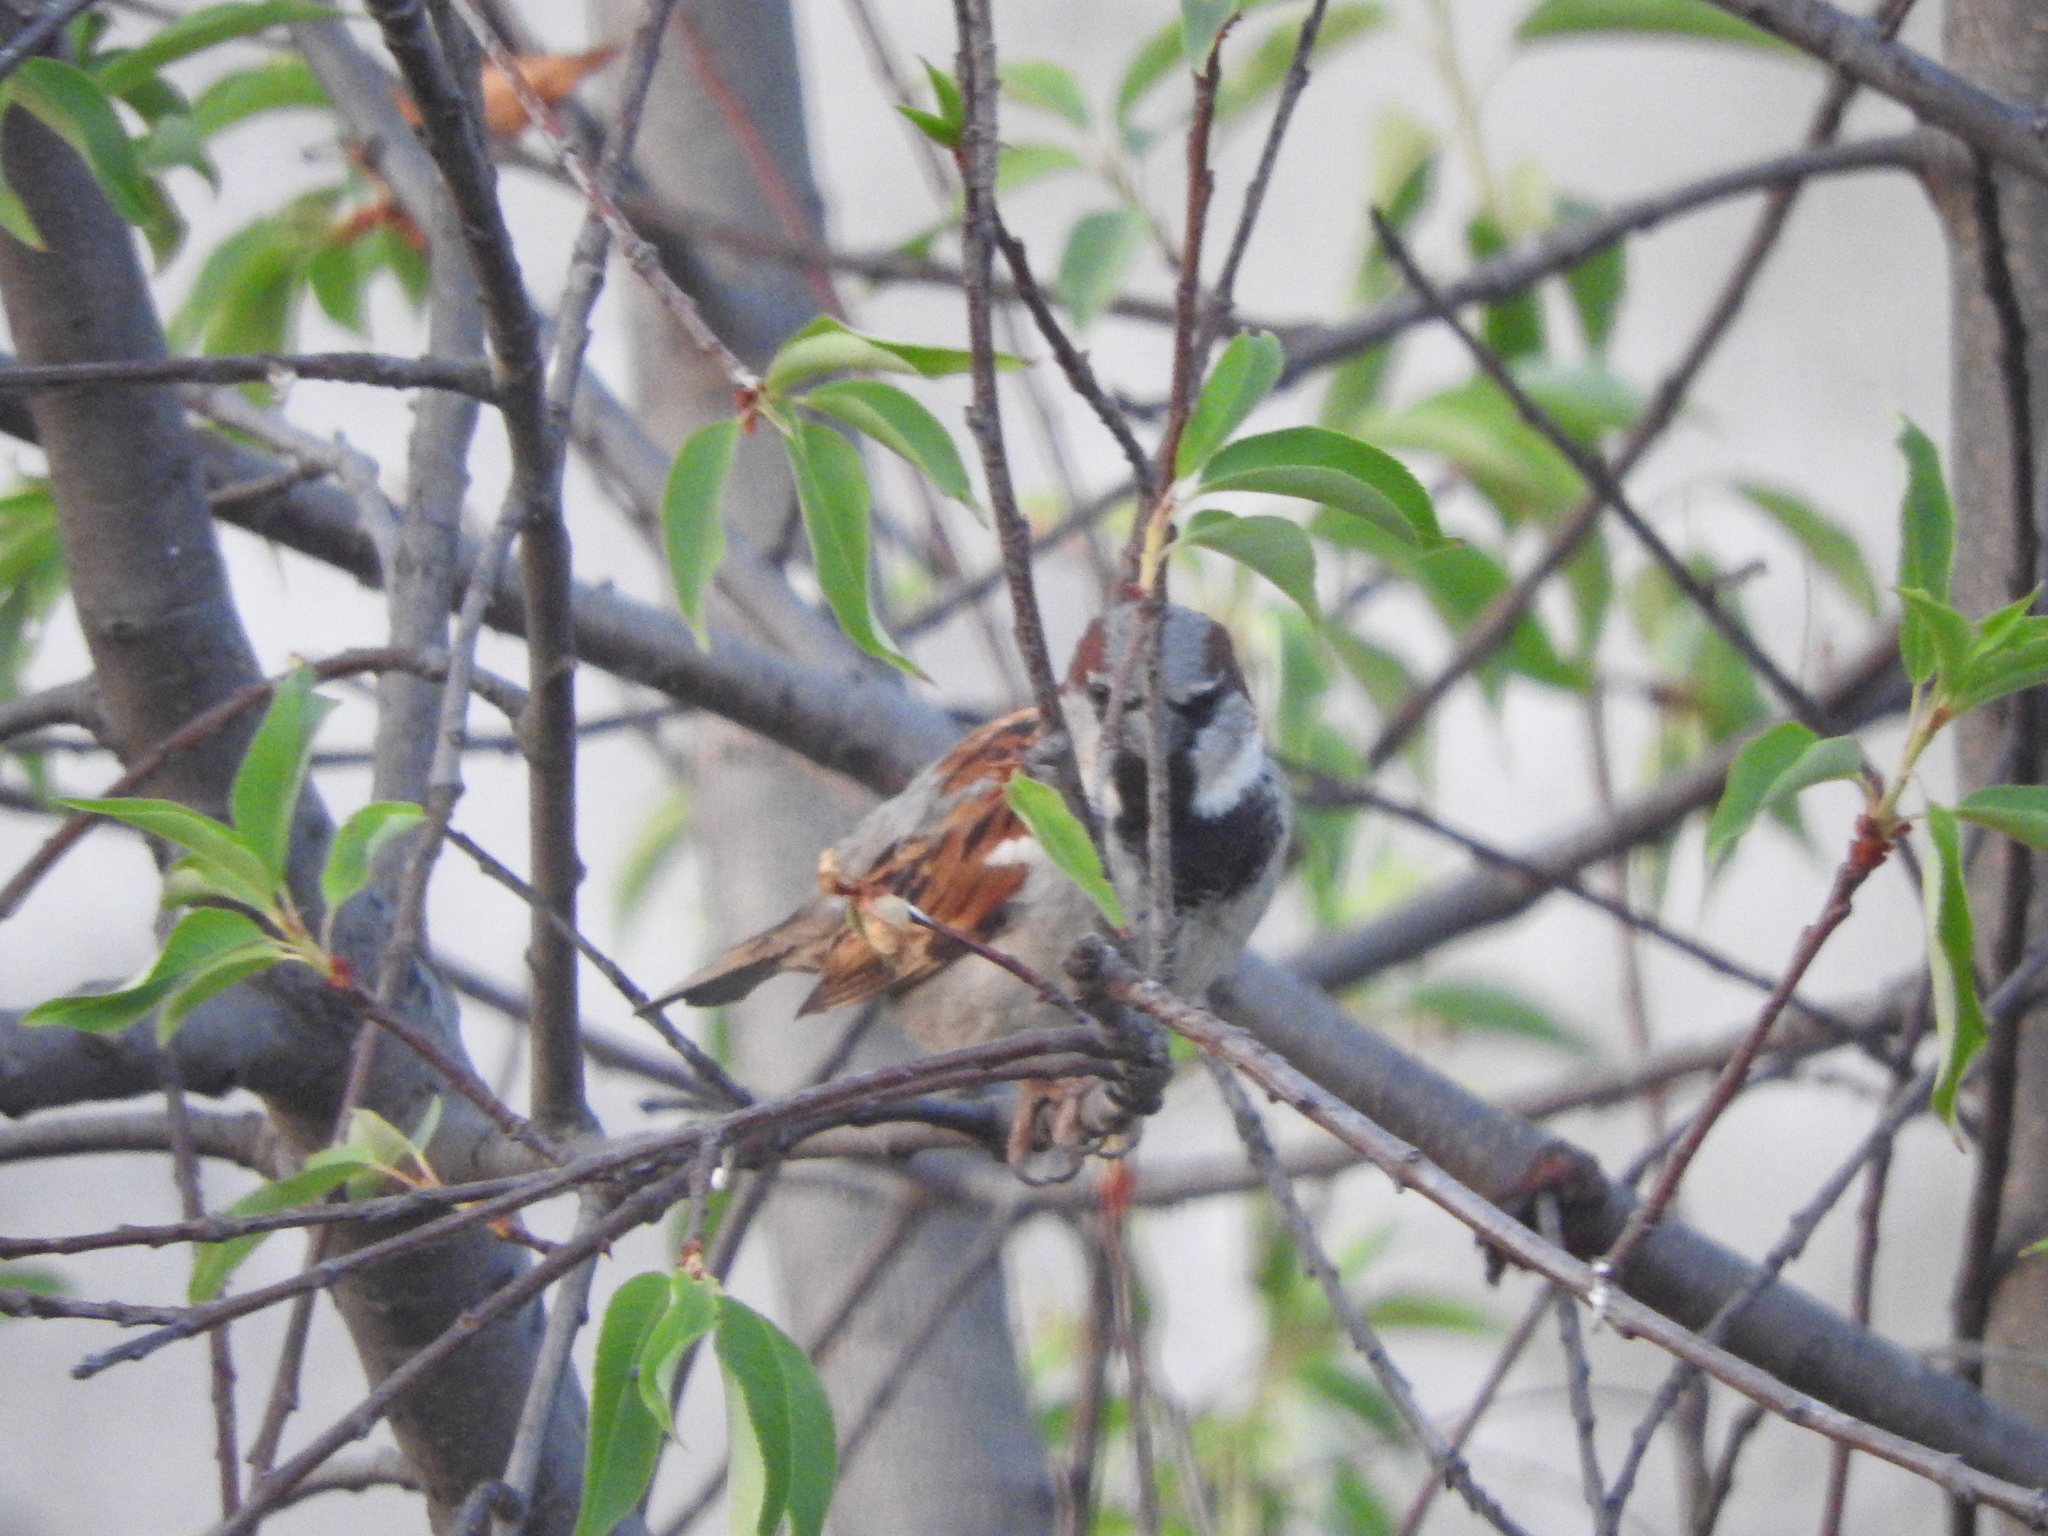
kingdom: Animalia
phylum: Chordata
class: Aves
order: Passeriformes
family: Passeridae
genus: Passer
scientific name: Passer domesticus
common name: House sparrow
